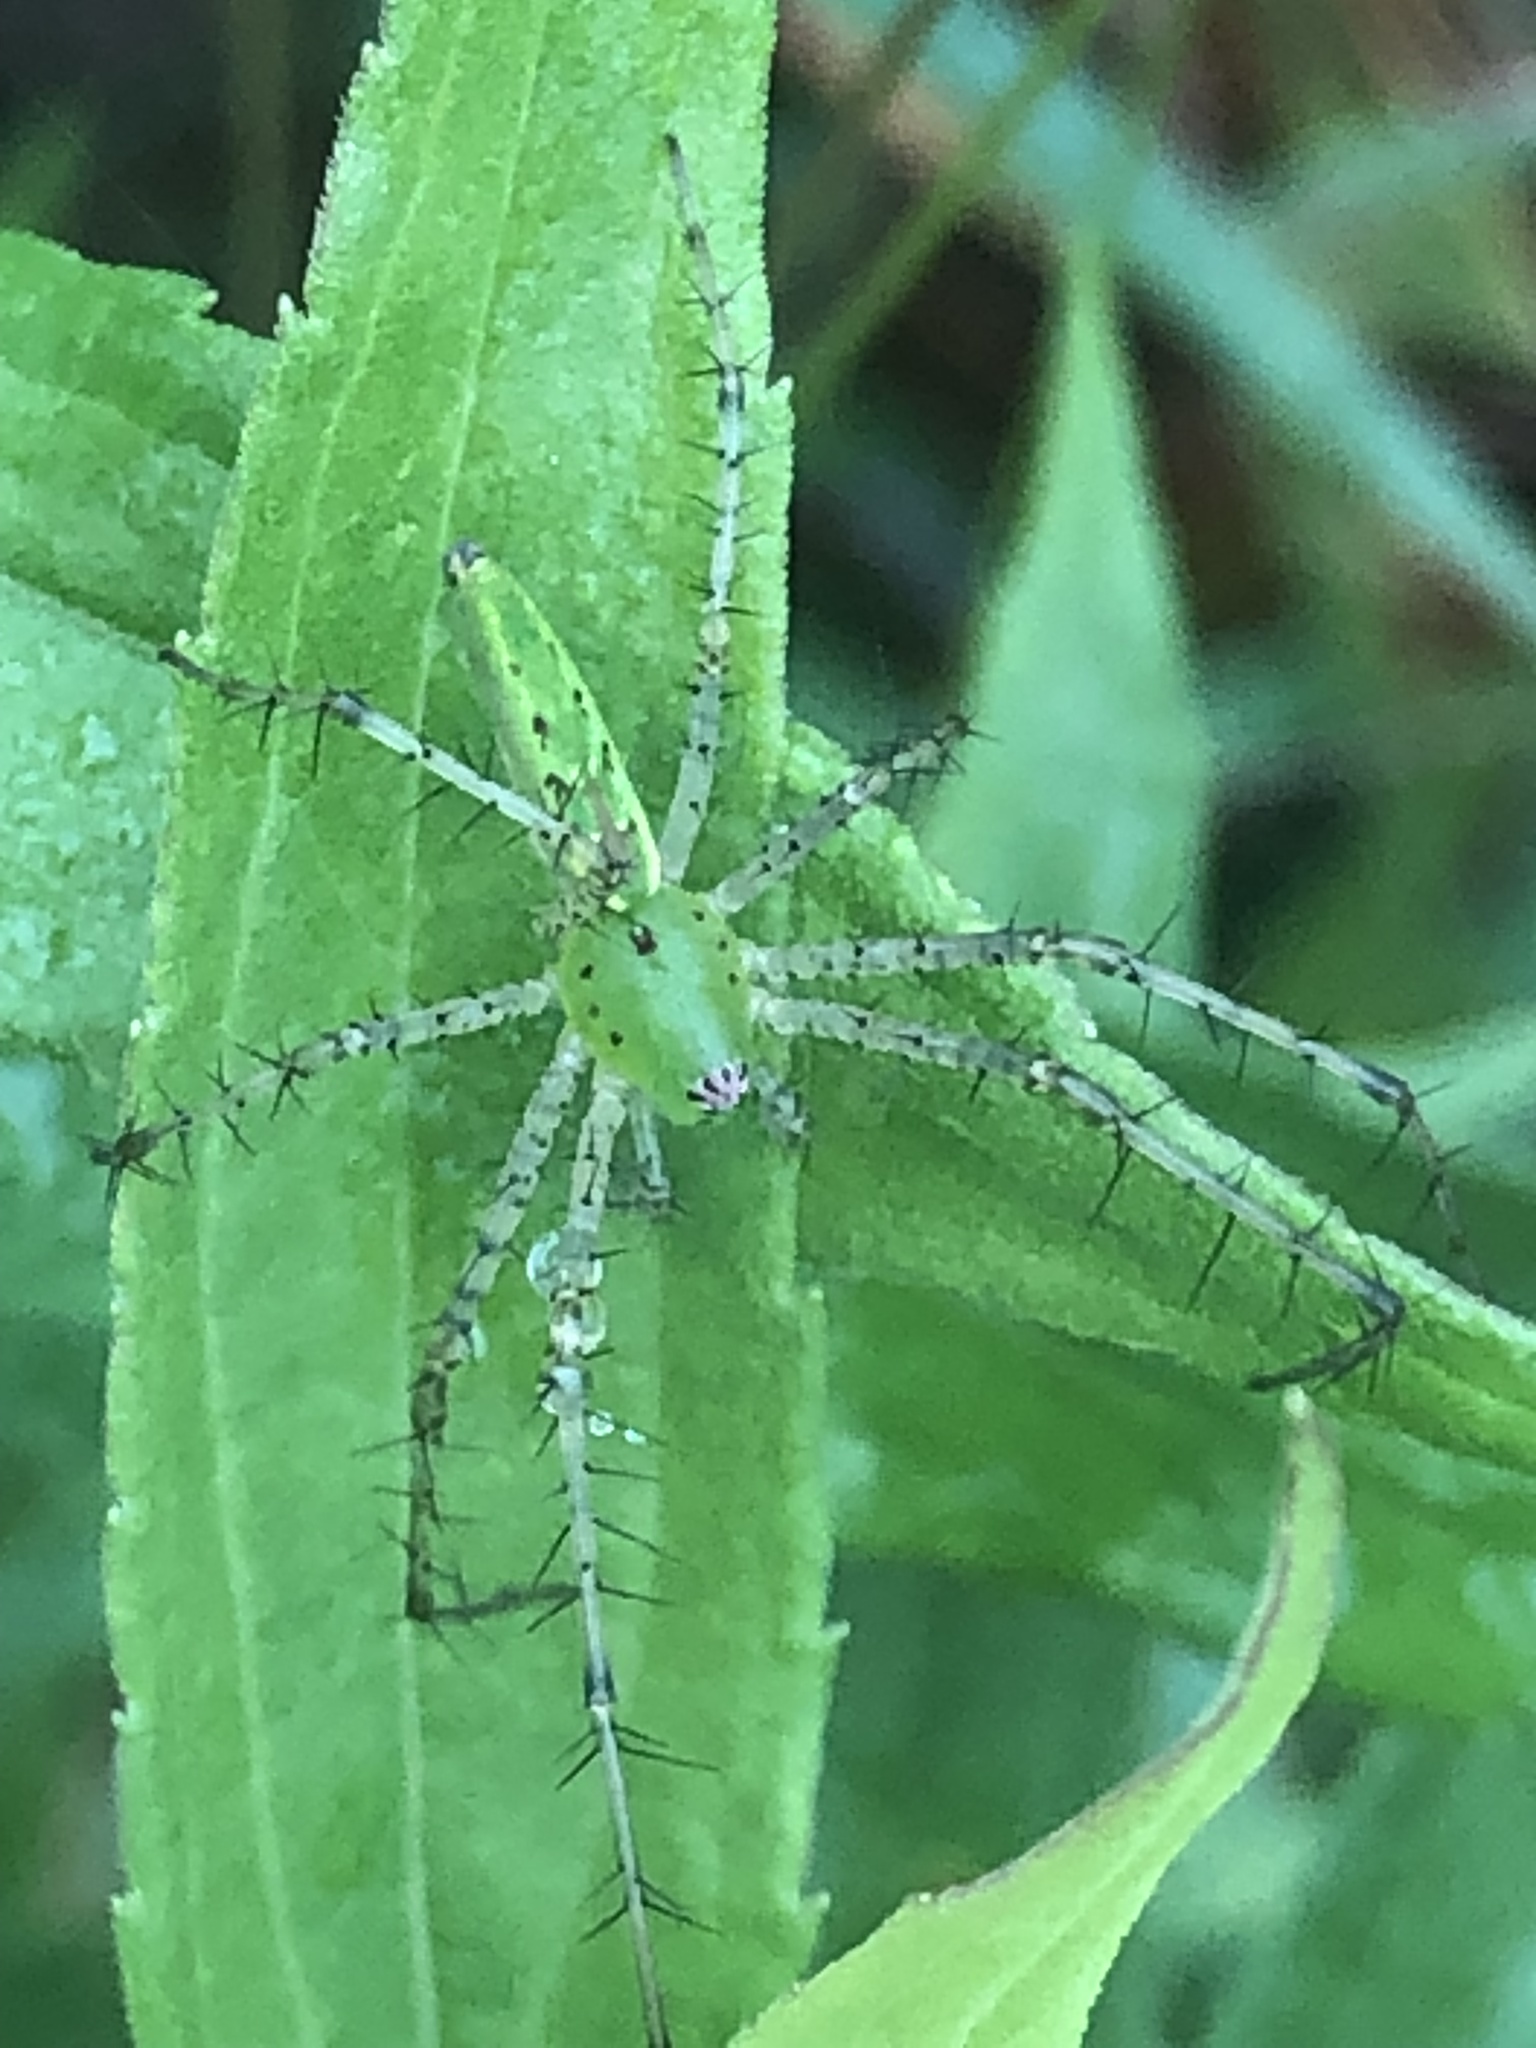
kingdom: Animalia
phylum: Arthropoda
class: Arachnida
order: Araneae
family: Oxyopidae
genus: Peucetia
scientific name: Peucetia viridans
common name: Lynx spiders
